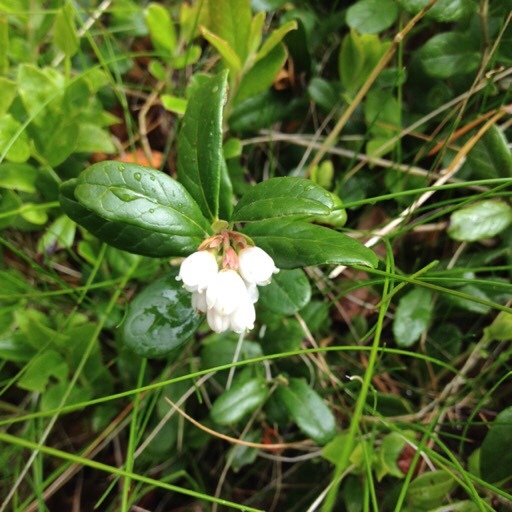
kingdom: Plantae
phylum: Tracheophyta
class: Magnoliopsida
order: Ericales
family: Ericaceae
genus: Vaccinium
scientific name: Vaccinium vitis-idaea
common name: Cowberry
